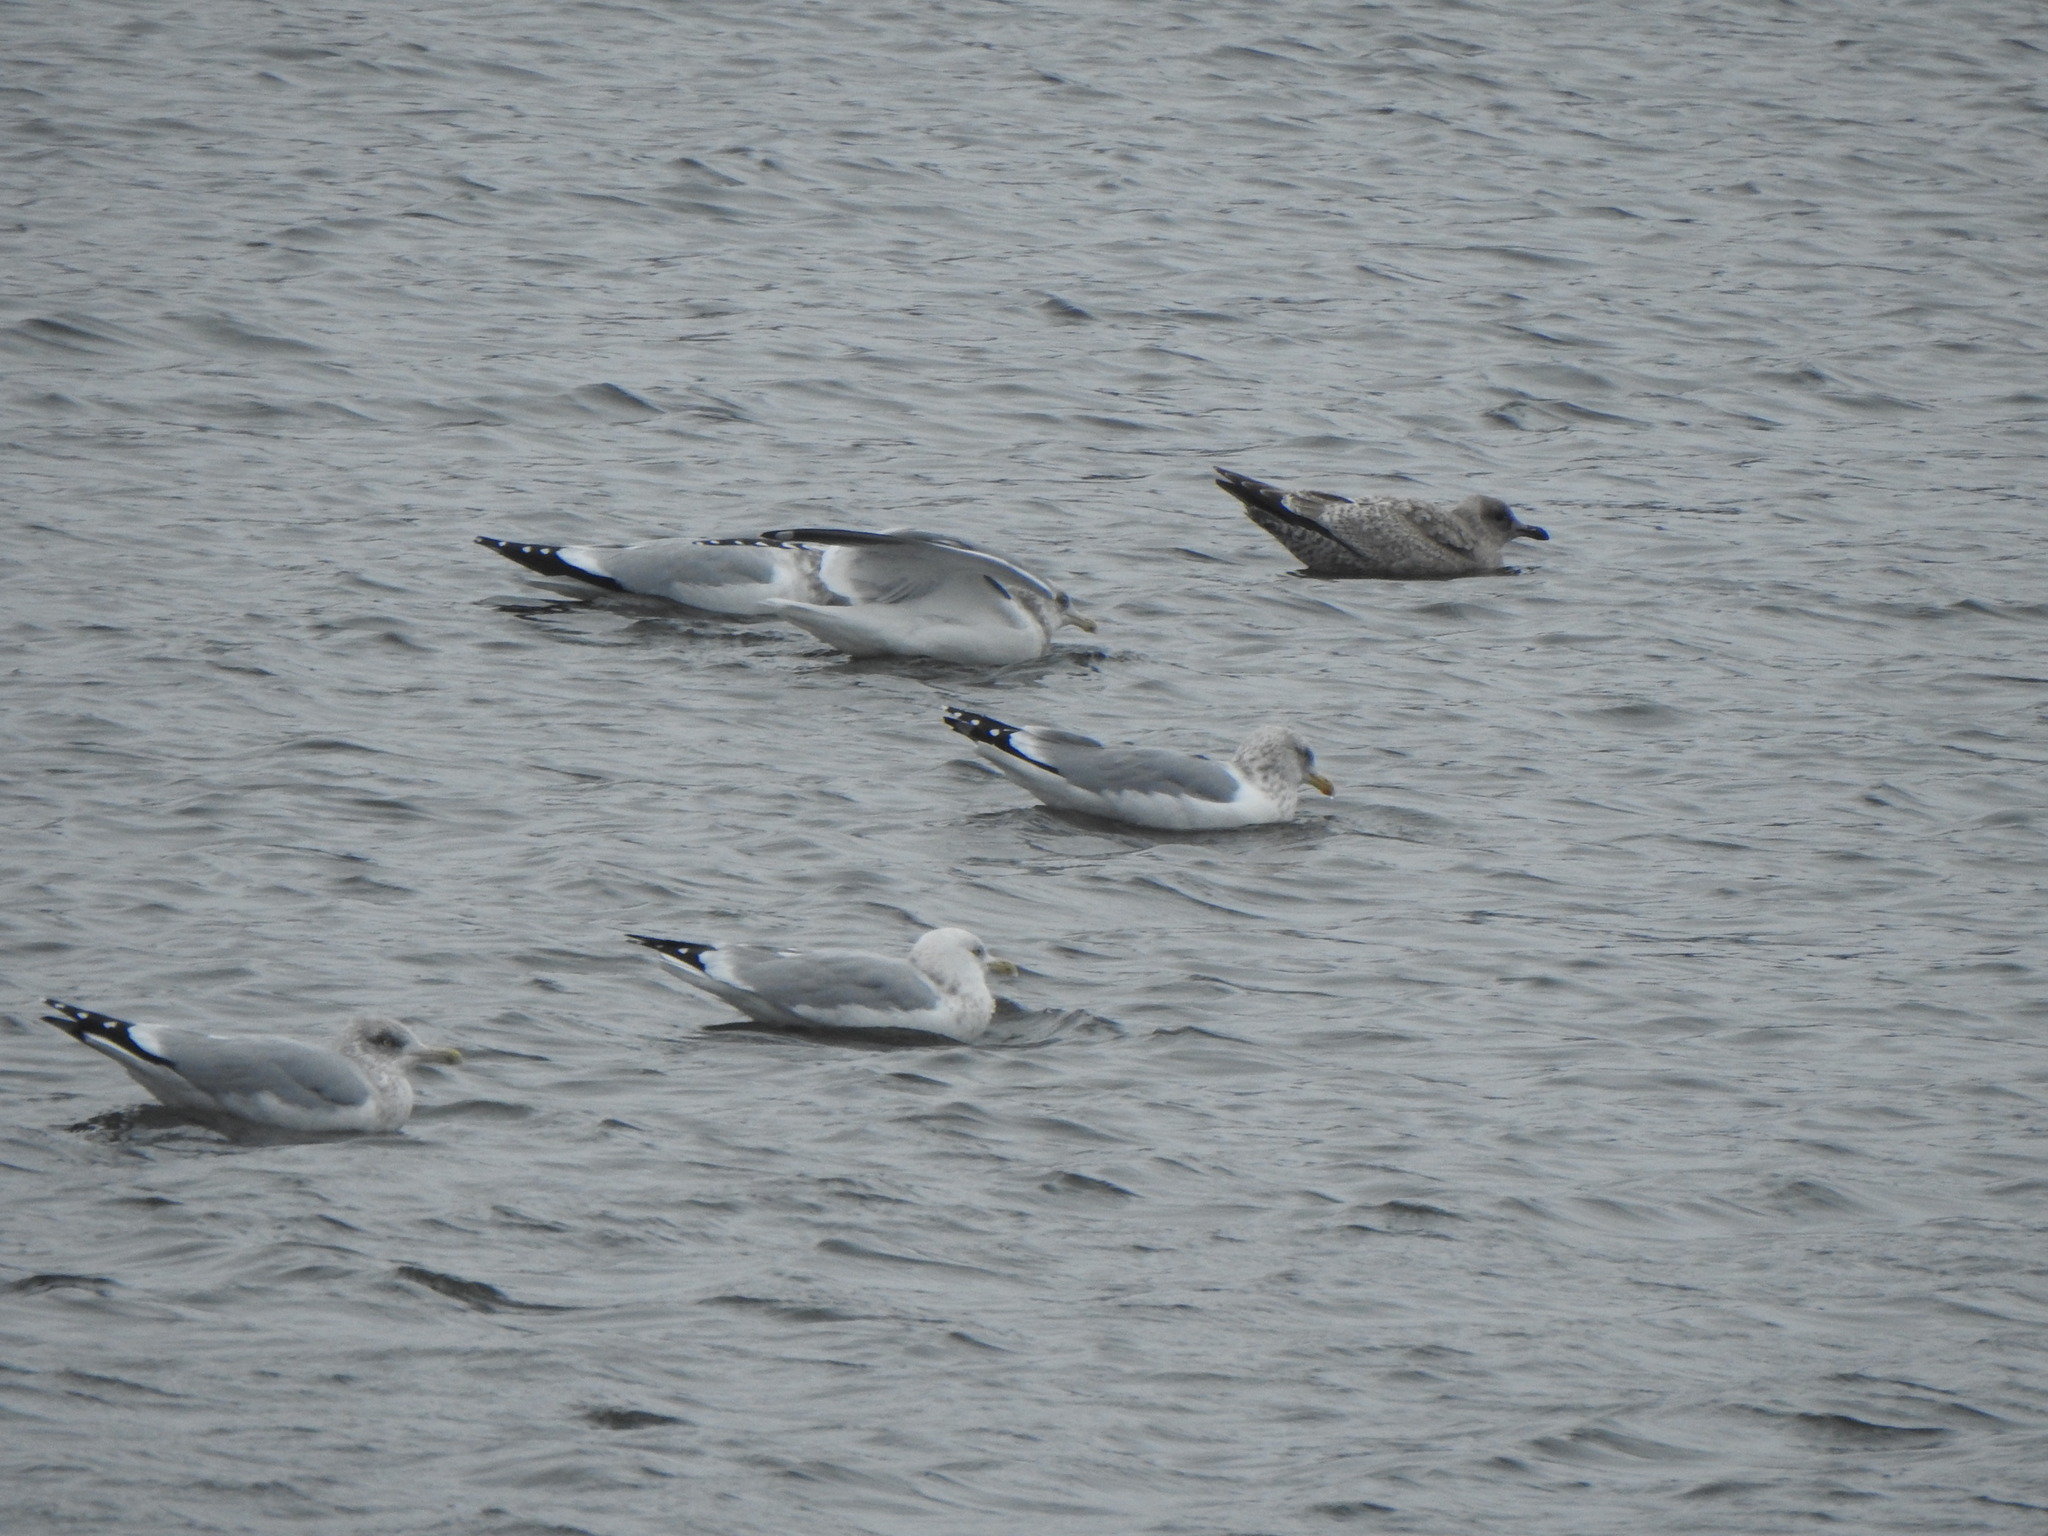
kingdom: Animalia
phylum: Chordata
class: Aves
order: Charadriiformes
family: Laridae
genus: Larus
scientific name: Larus argentatus
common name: Herring gull
